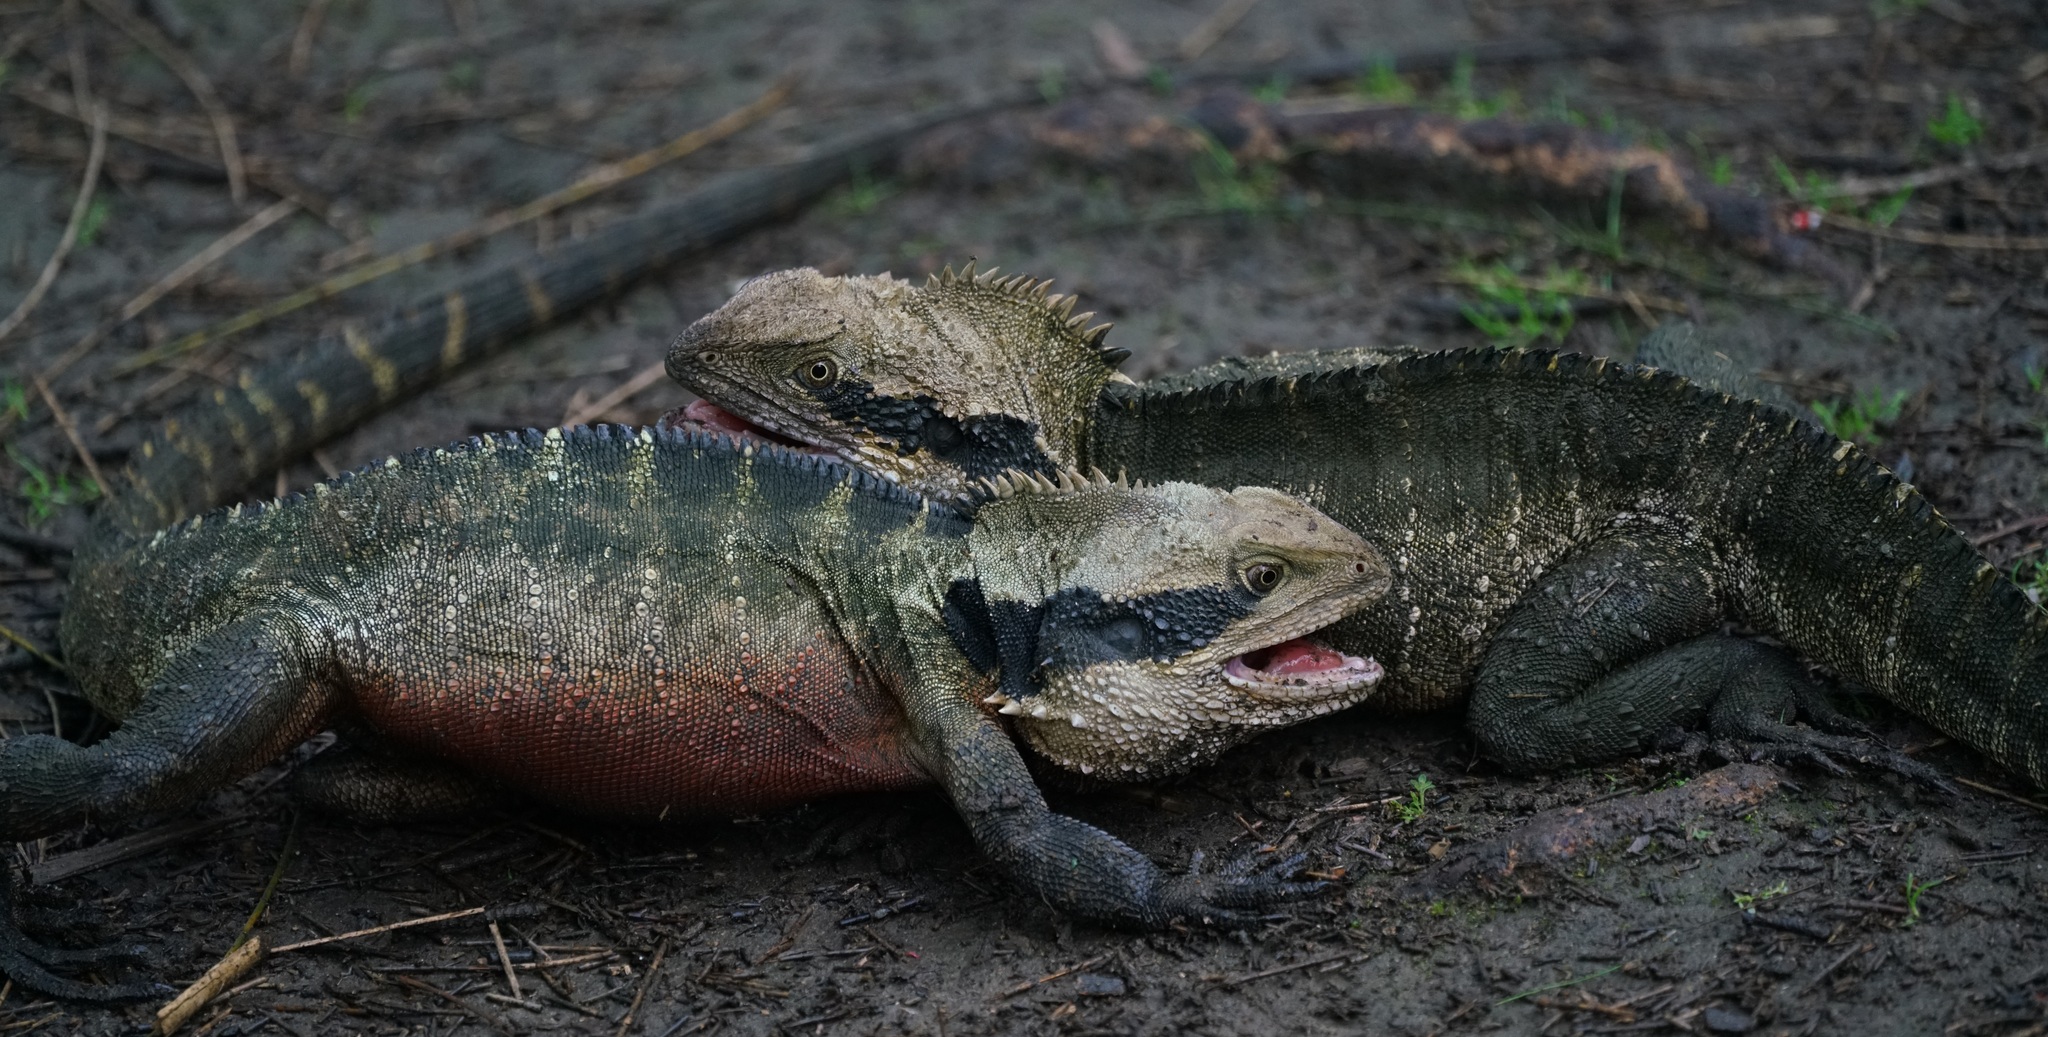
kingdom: Animalia
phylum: Chordata
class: Squamata
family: Agamidae
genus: Intellagama
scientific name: Intellagama lesueurii
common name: Eastern water dragon
